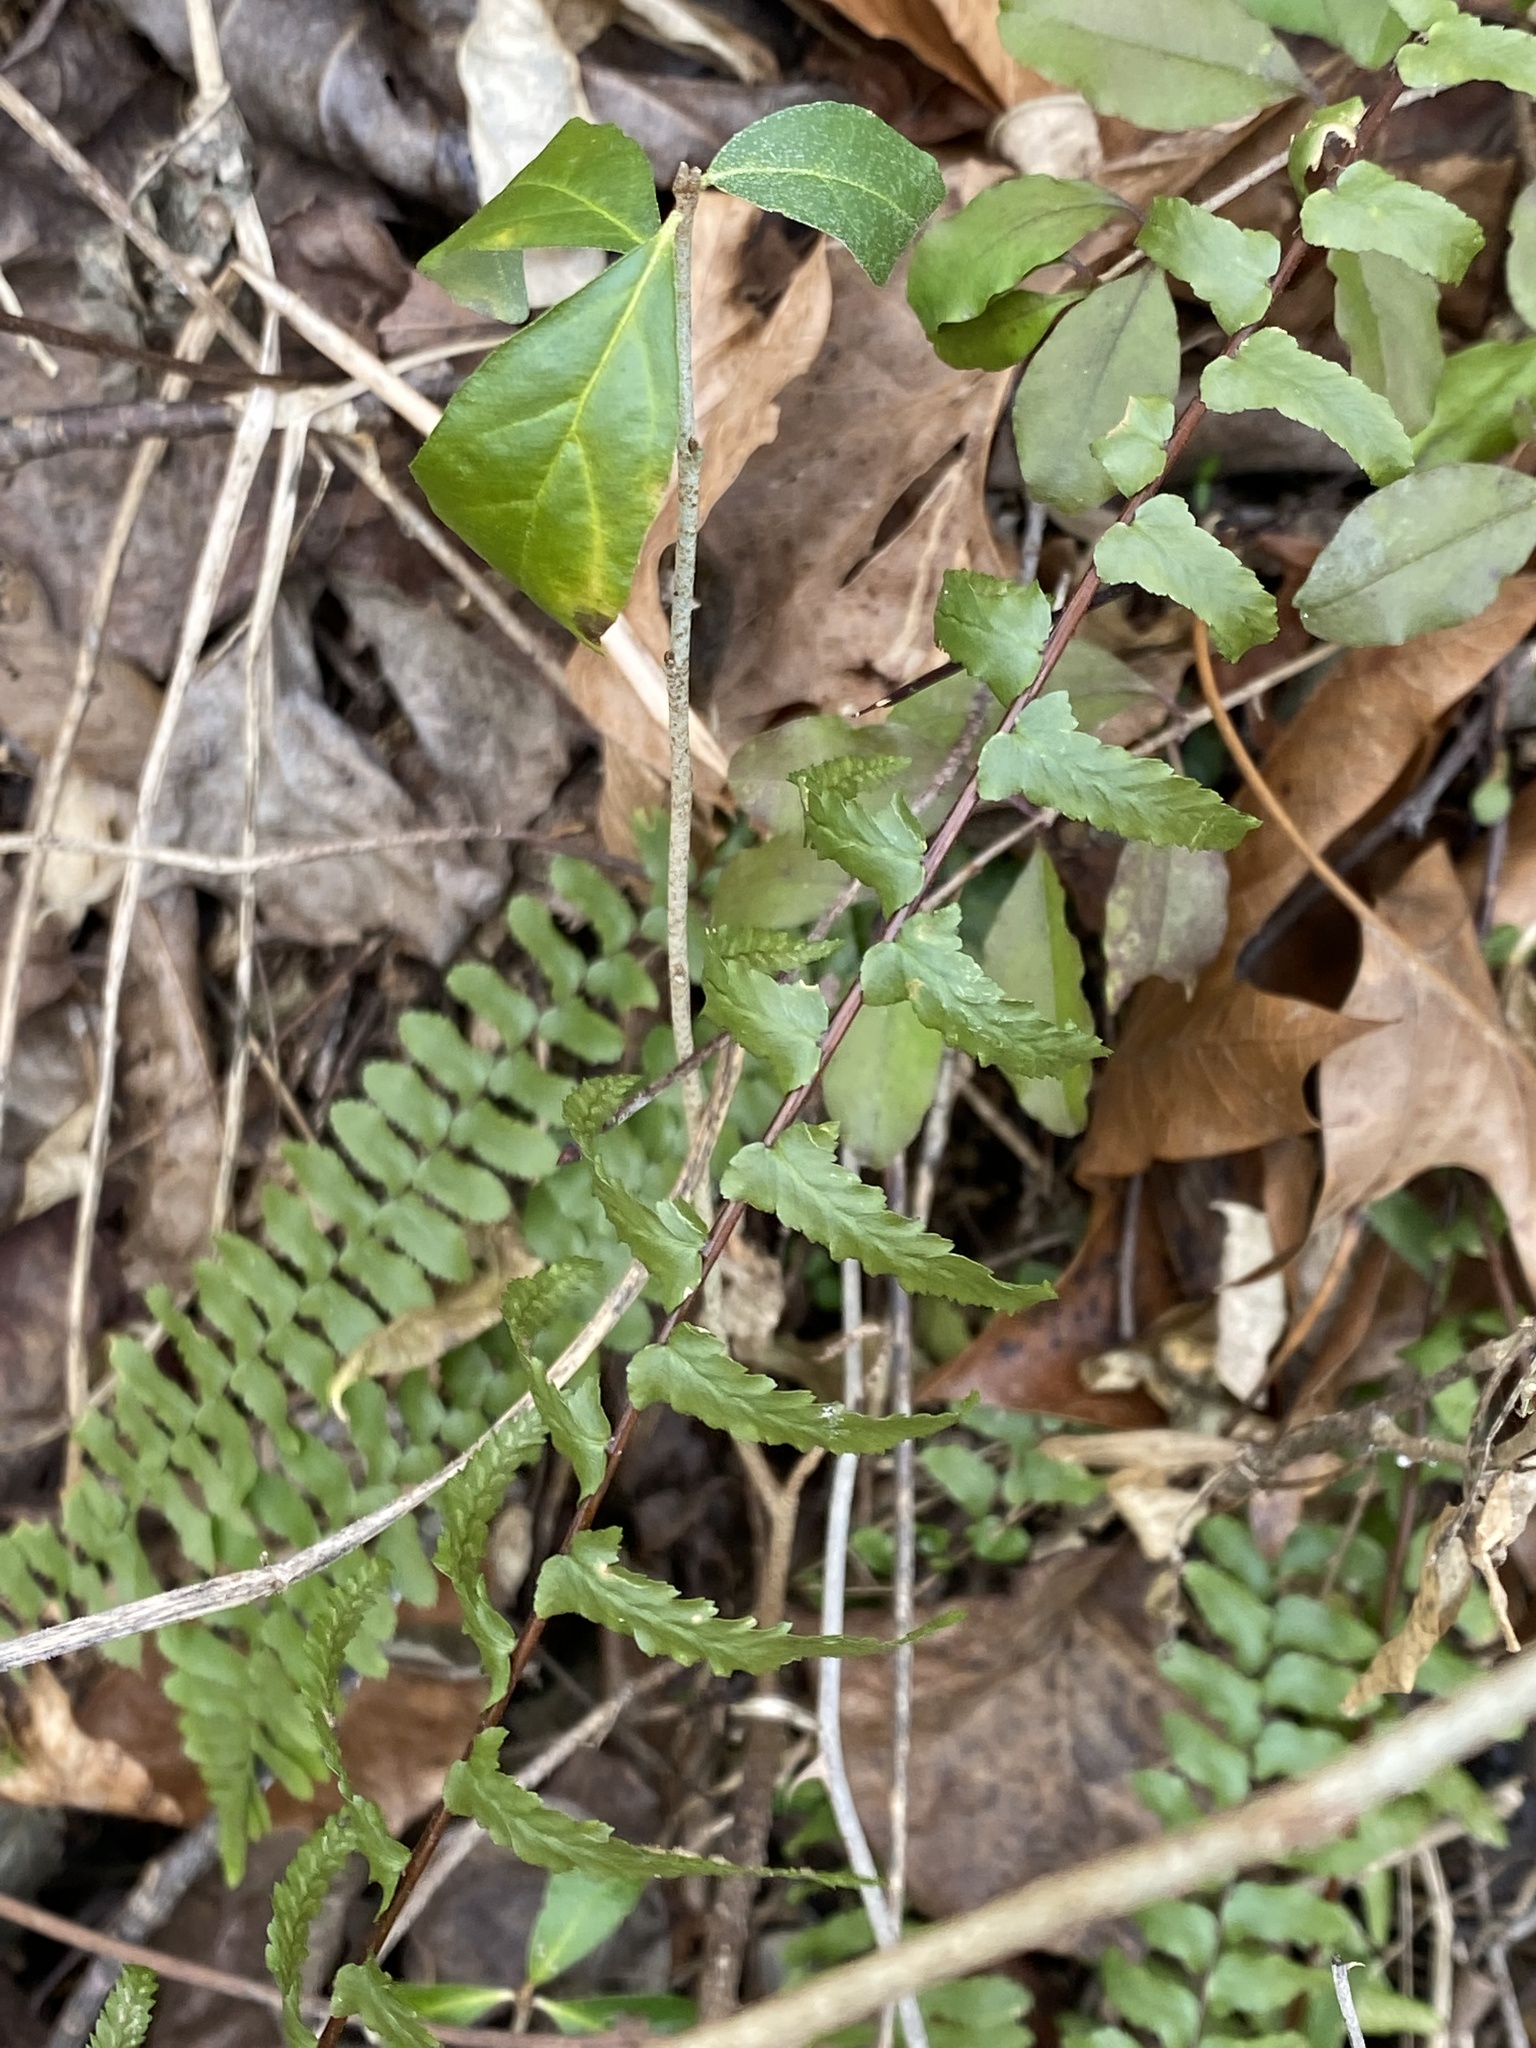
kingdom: Plantae
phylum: Tracheophyta
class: Polypodiopsida
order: Polypodiales
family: Aspleniaceae
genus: Asplenium
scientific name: Asplenium platyneuron
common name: Ebony spleenwort
